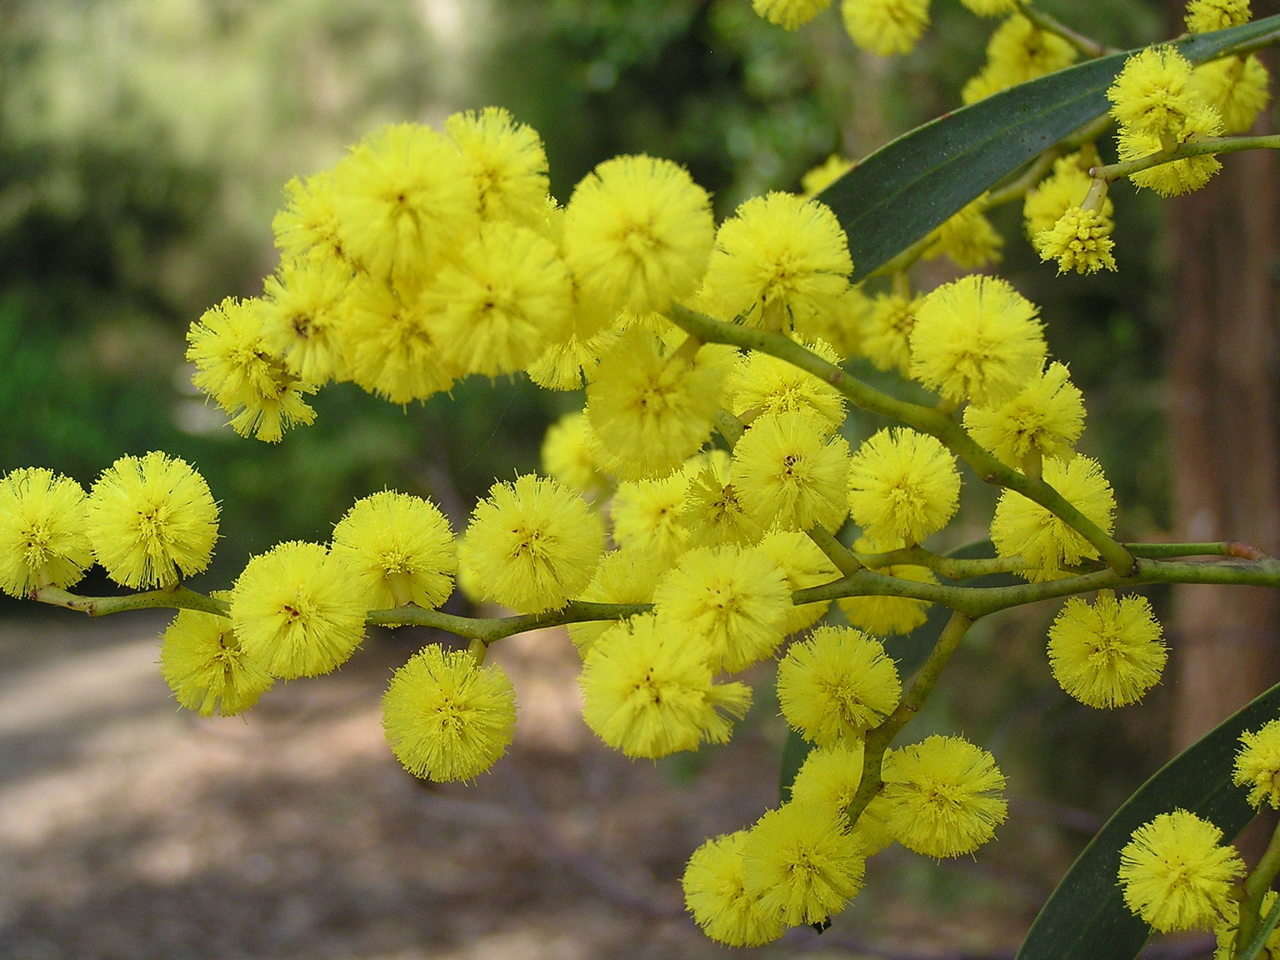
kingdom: Plantae
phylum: Tracheophyta
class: Magnoliopsida
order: Fabales
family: Fabaceae
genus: Acacia
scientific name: Acacia pycnantha
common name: Golden wattle
